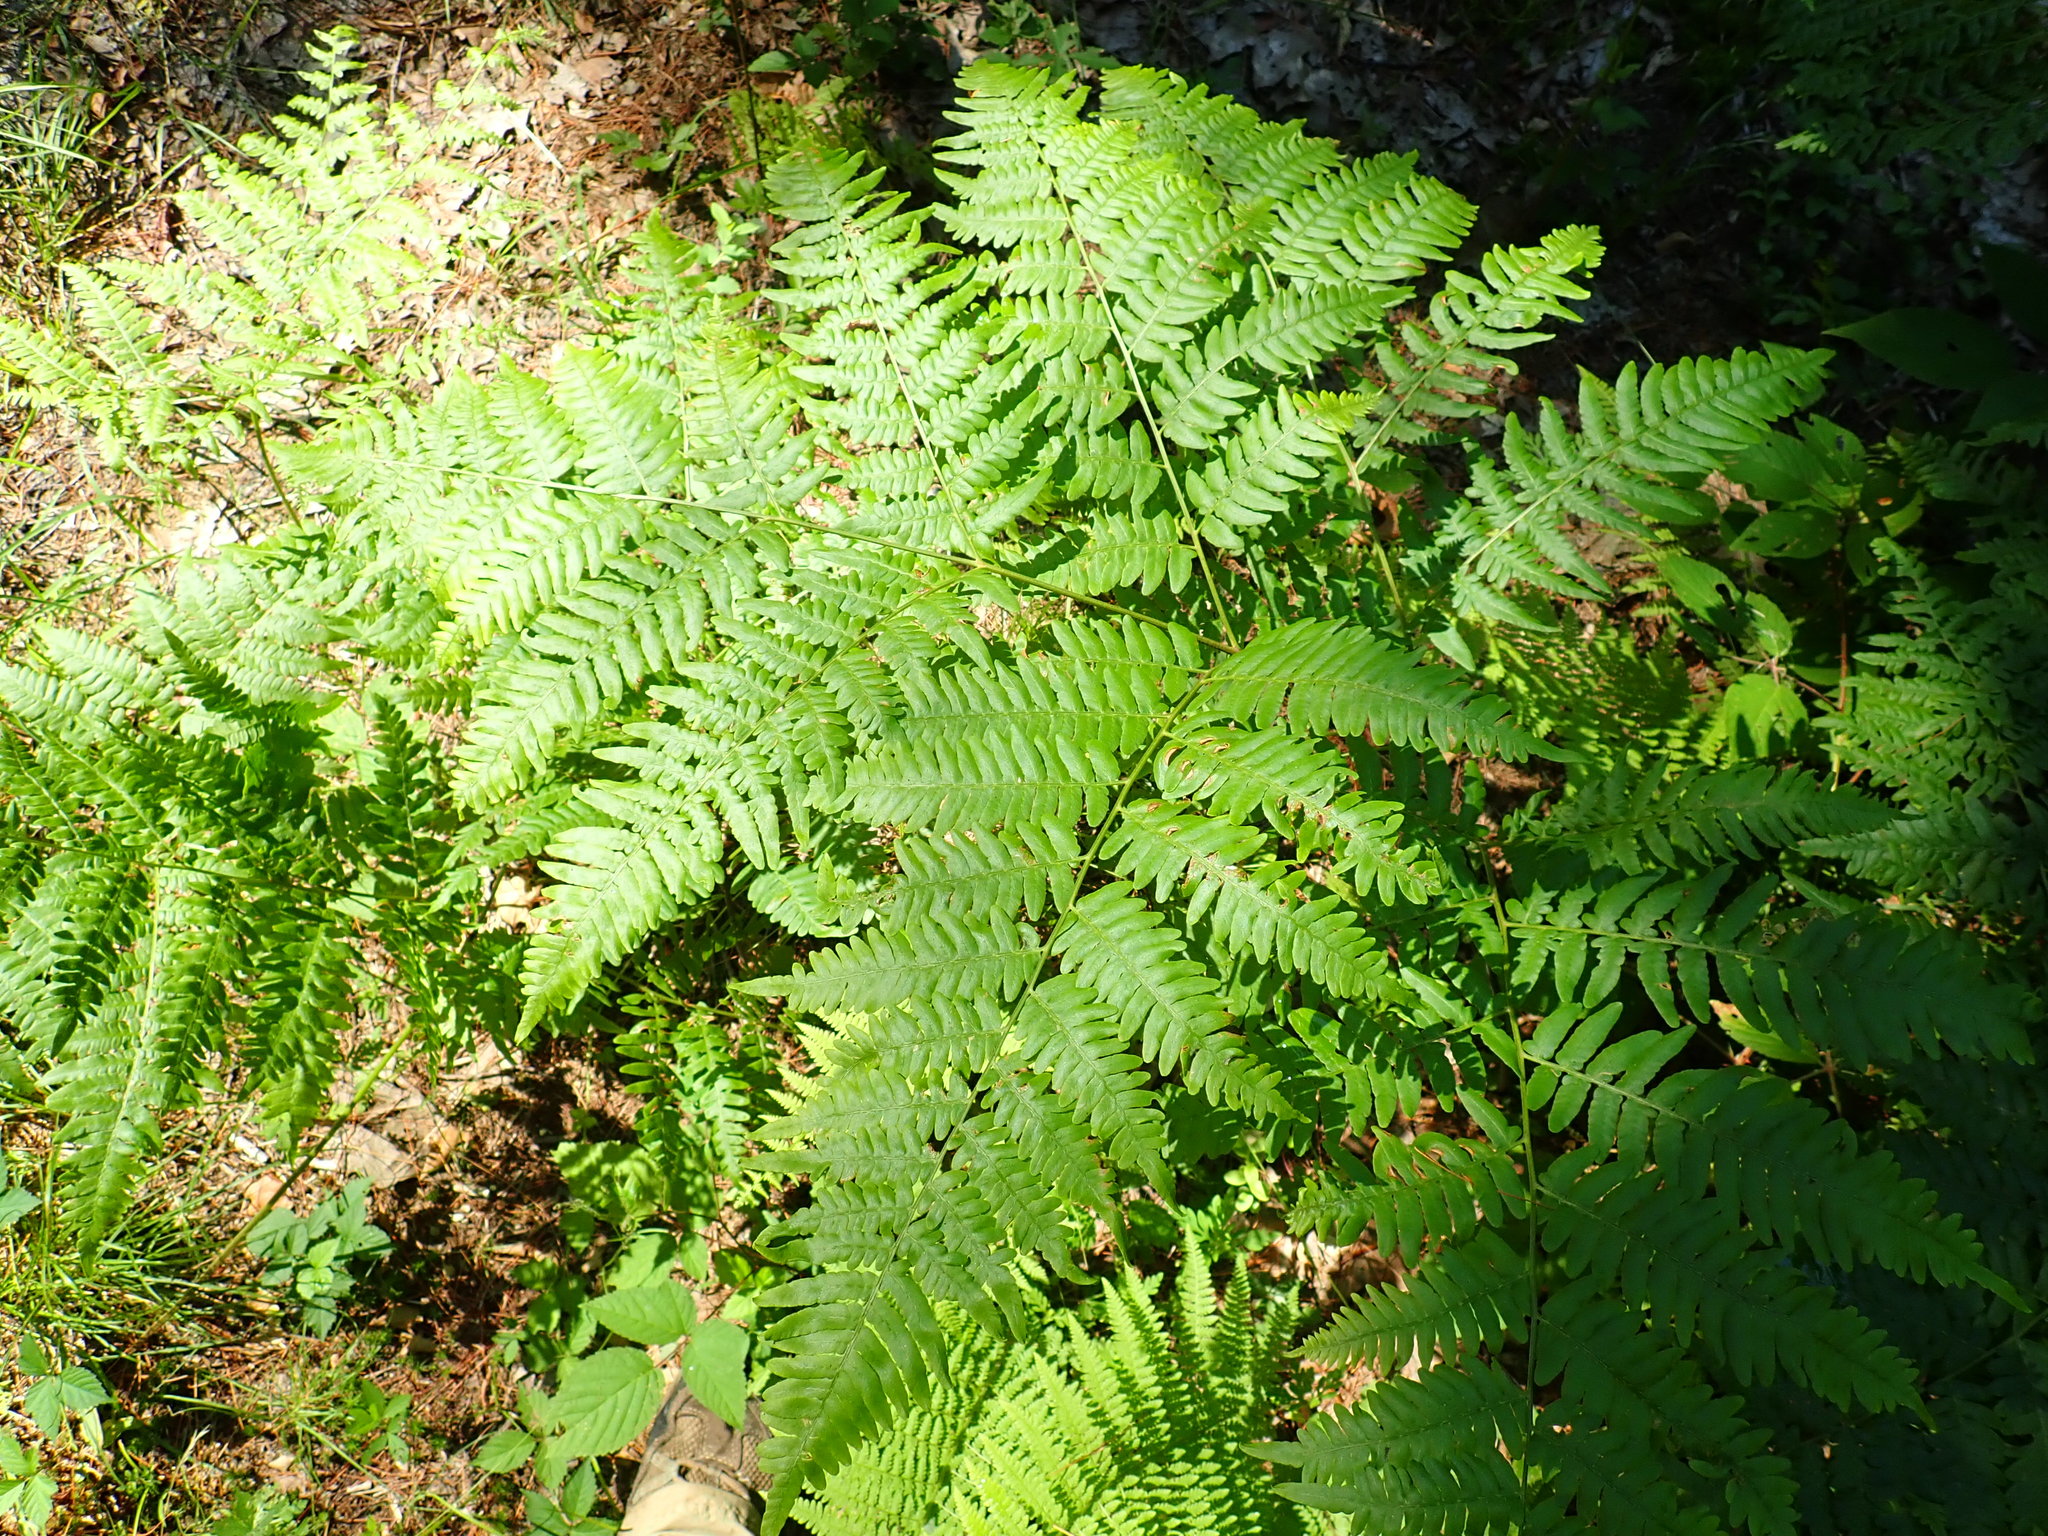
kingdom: Plantae
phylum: Tracheophyta
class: Polypodiopsida
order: Polypodiales
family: Dennstaedtiaceae
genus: Pteridium
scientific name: Pteridium aquilinum
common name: Bracken
